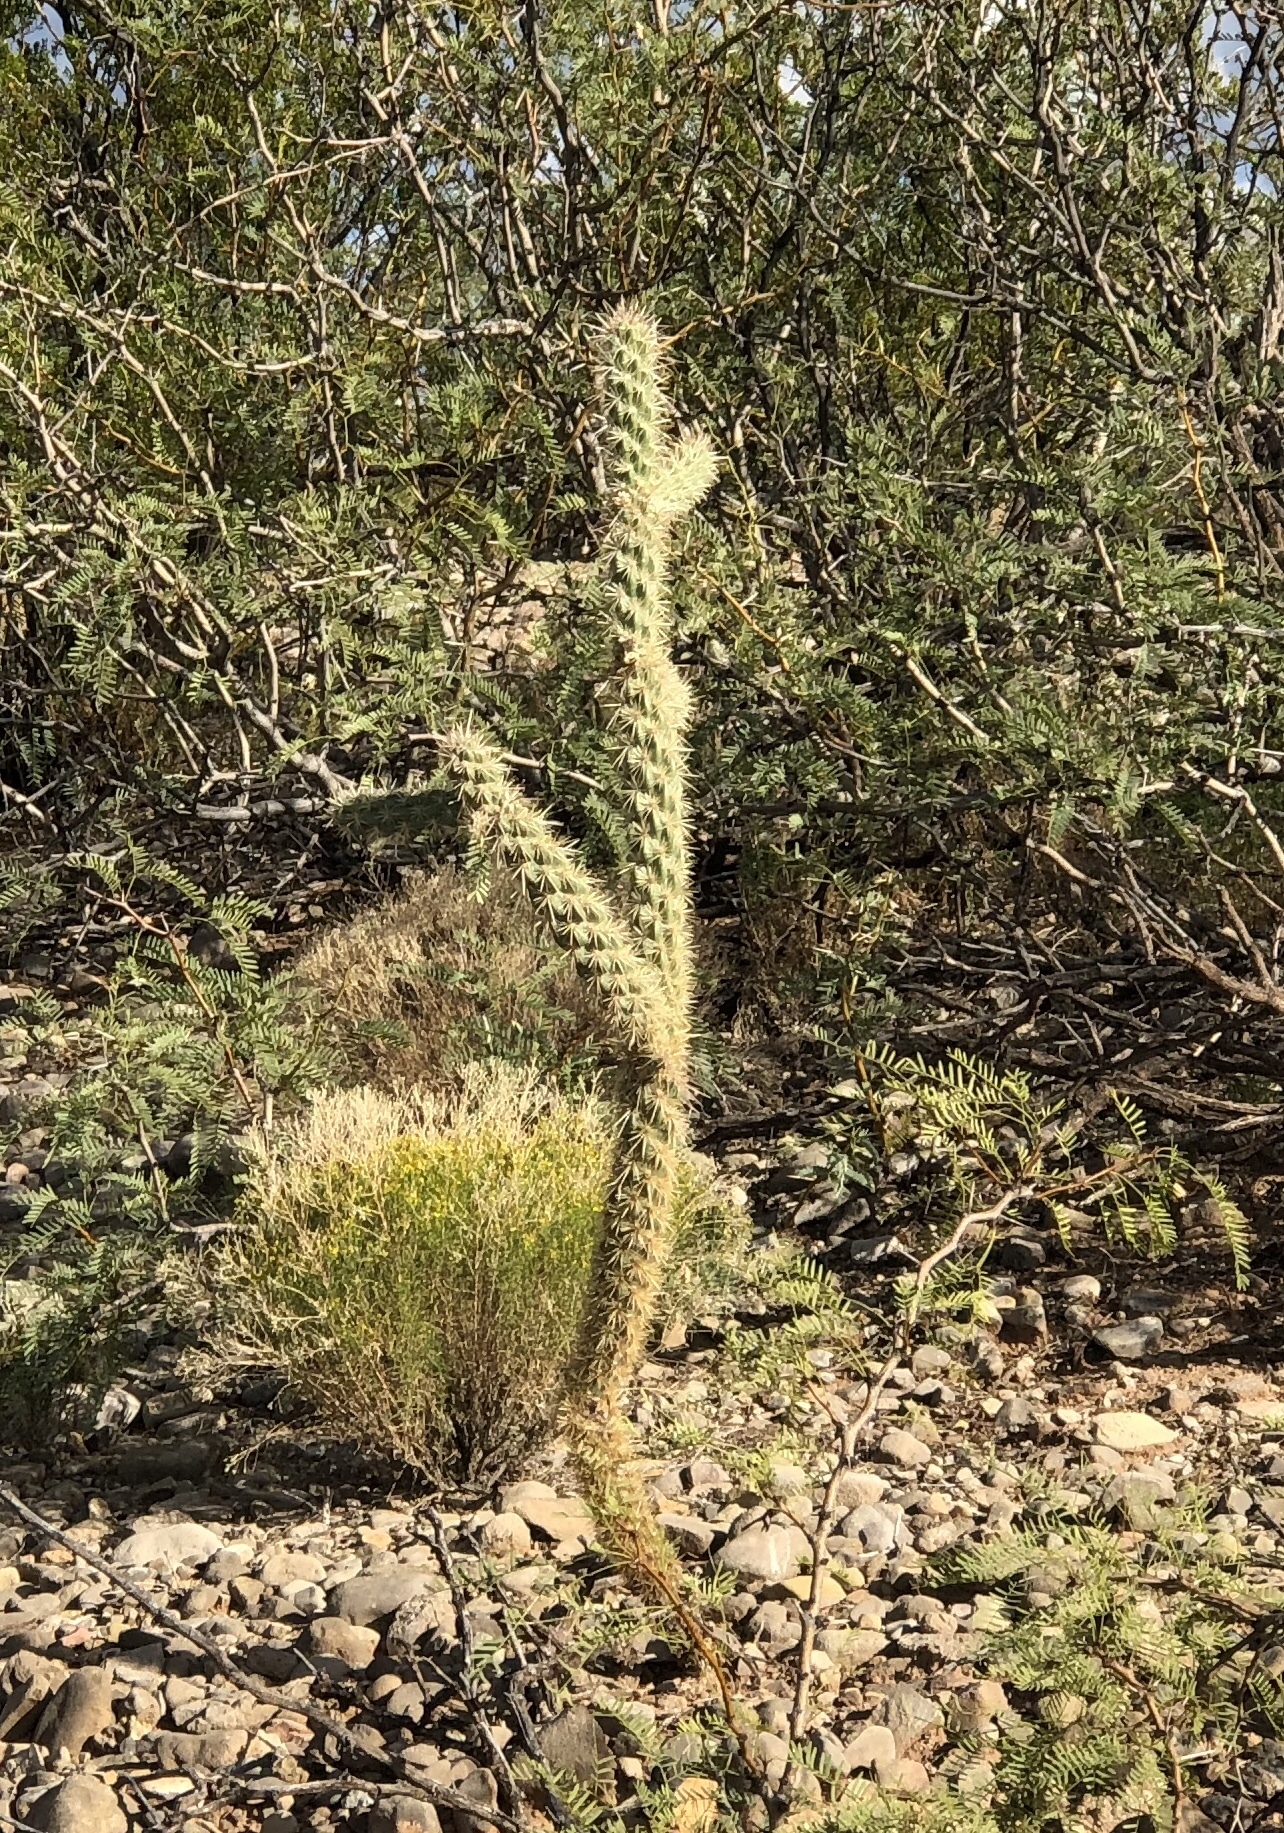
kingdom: Plantae
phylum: Tracheophyta
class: Magnoliopsida
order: Caryophyllales
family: Cactaceae
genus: Cylindropuntia
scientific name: Cylindropuntia imbricata
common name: Candelabrum cactus
